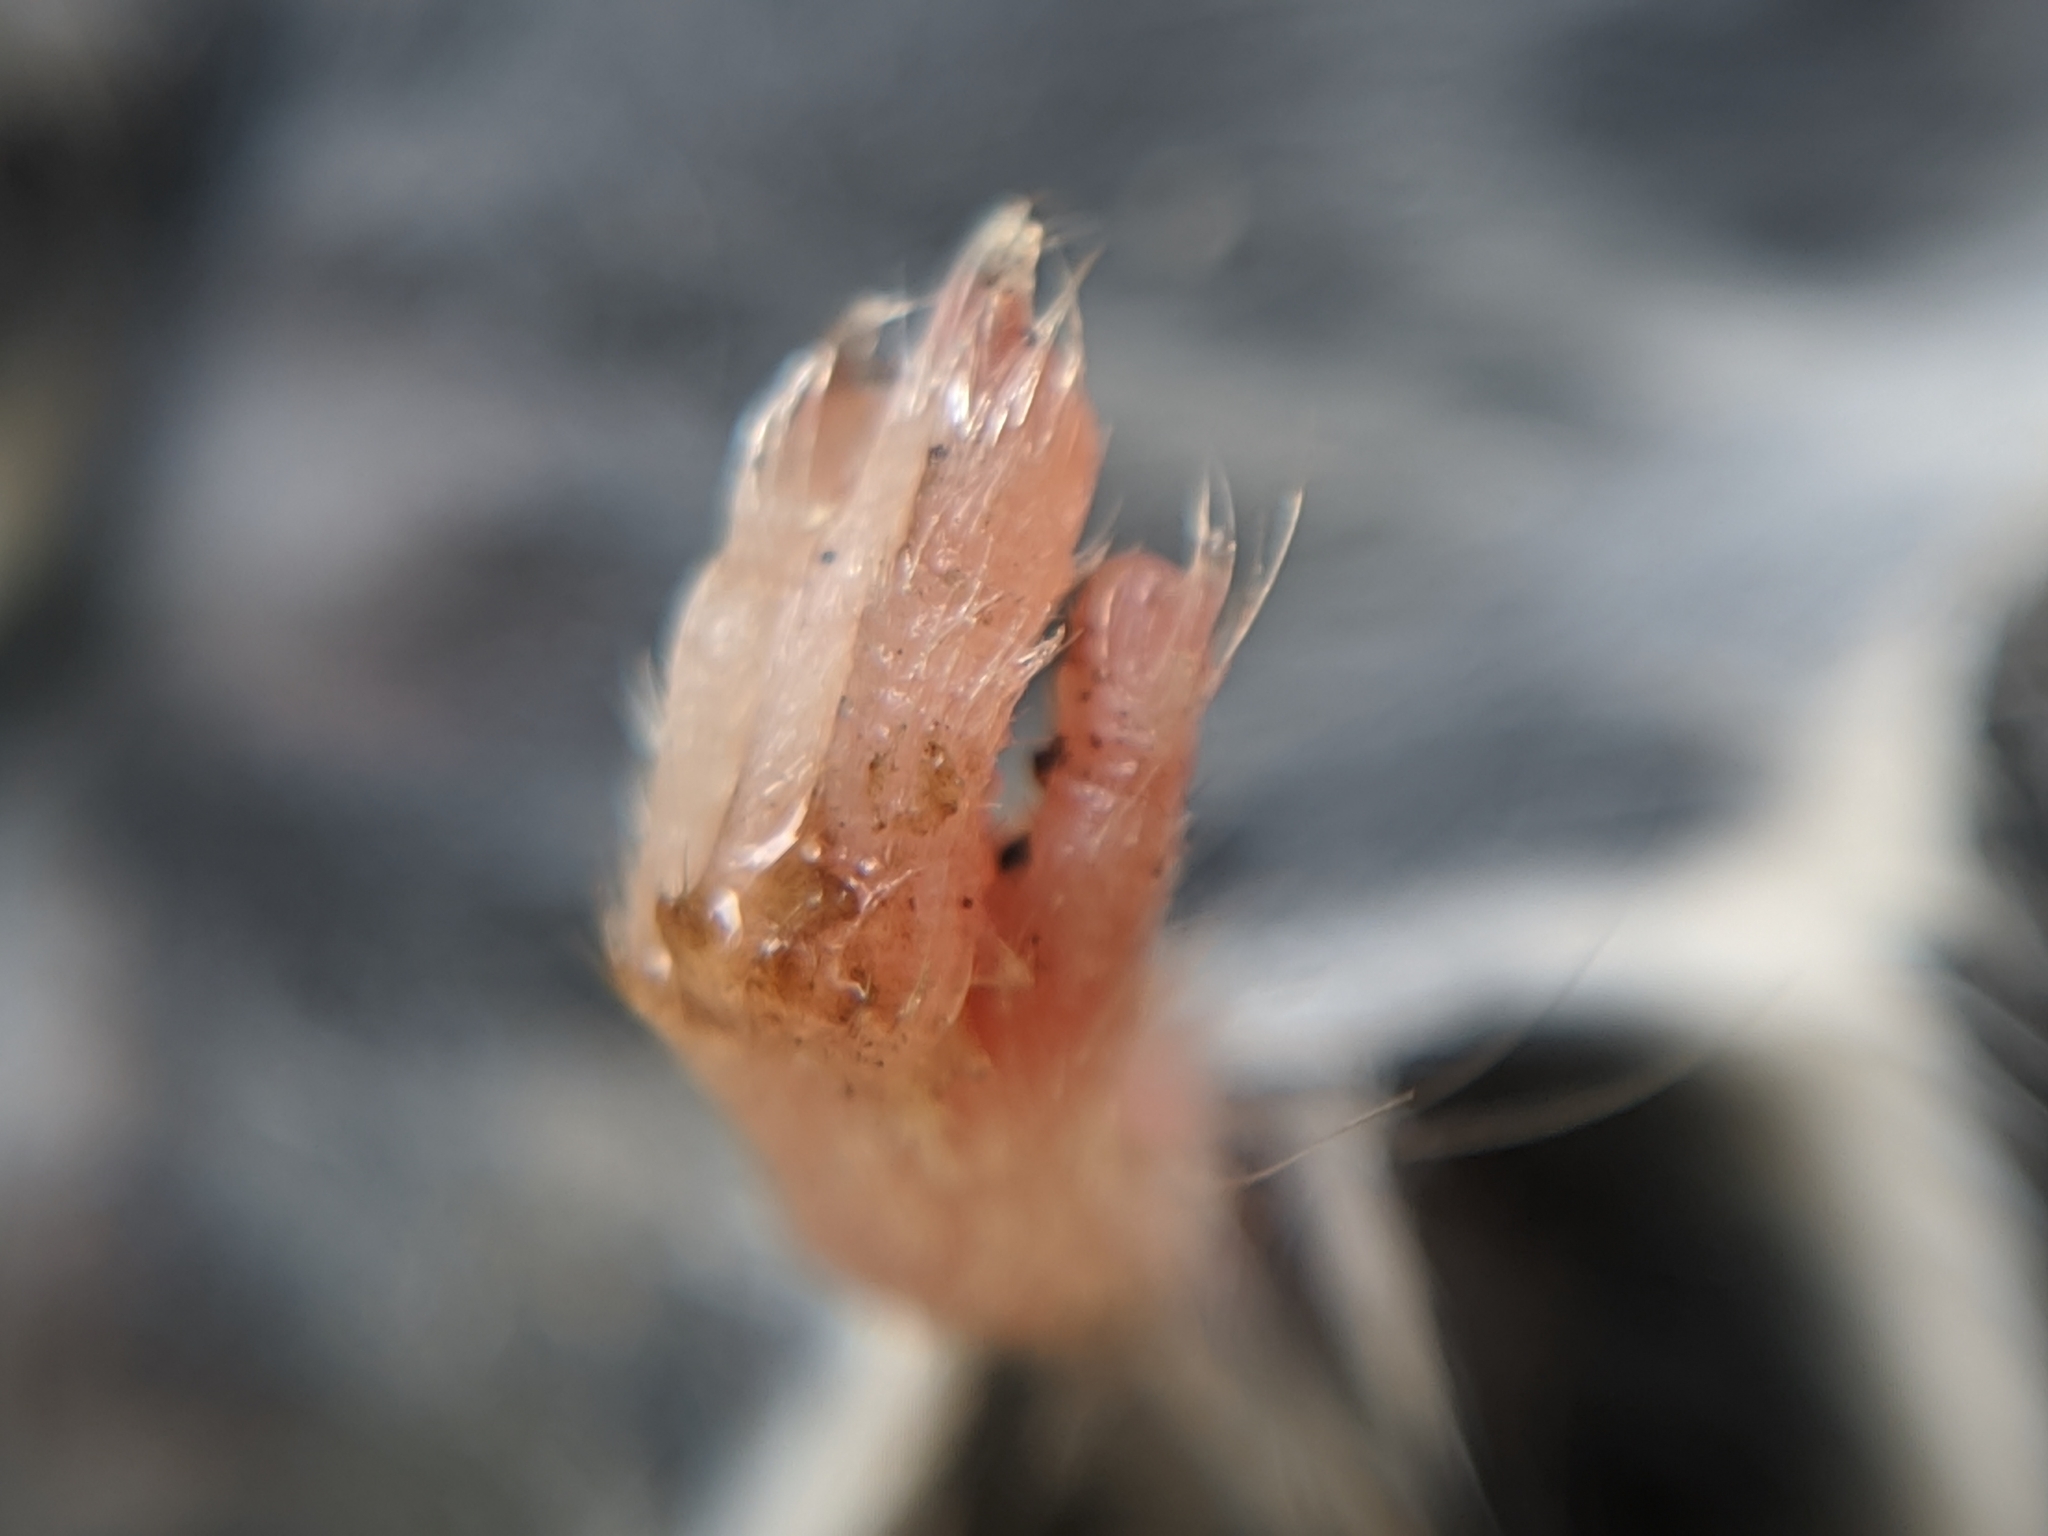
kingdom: Animalia
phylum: Chordata
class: Mammalia
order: Rodentia
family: Cricetidae
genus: Reithrodontomys
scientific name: Reithrodontomys megalotis
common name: Western harvest mouse
